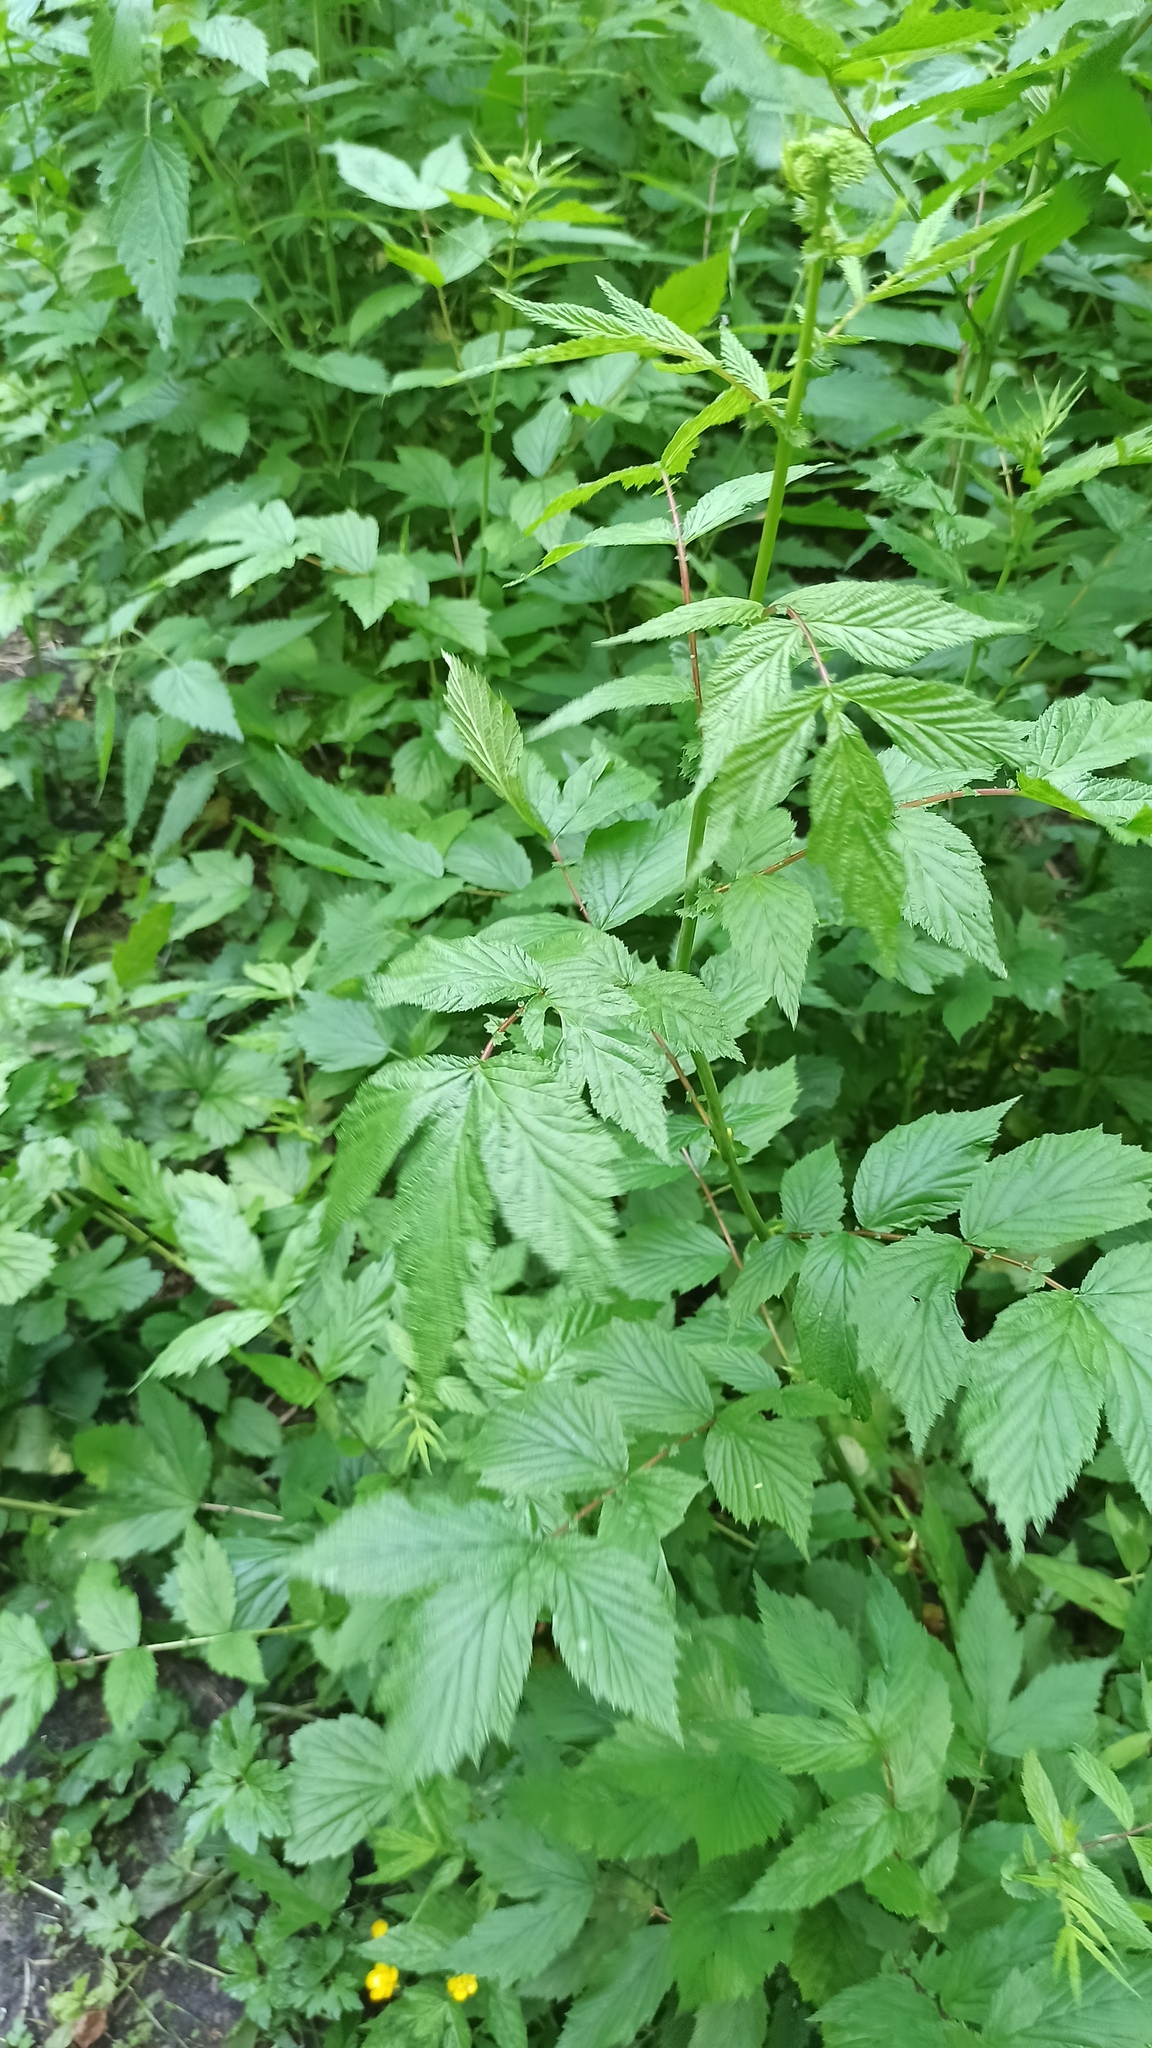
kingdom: Plantae
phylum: Tracheophyta
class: Magnoliopsida
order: Rosales
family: Rosaceae
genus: Filipendula
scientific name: Filipendula ulmaria
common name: Meadowsweet
